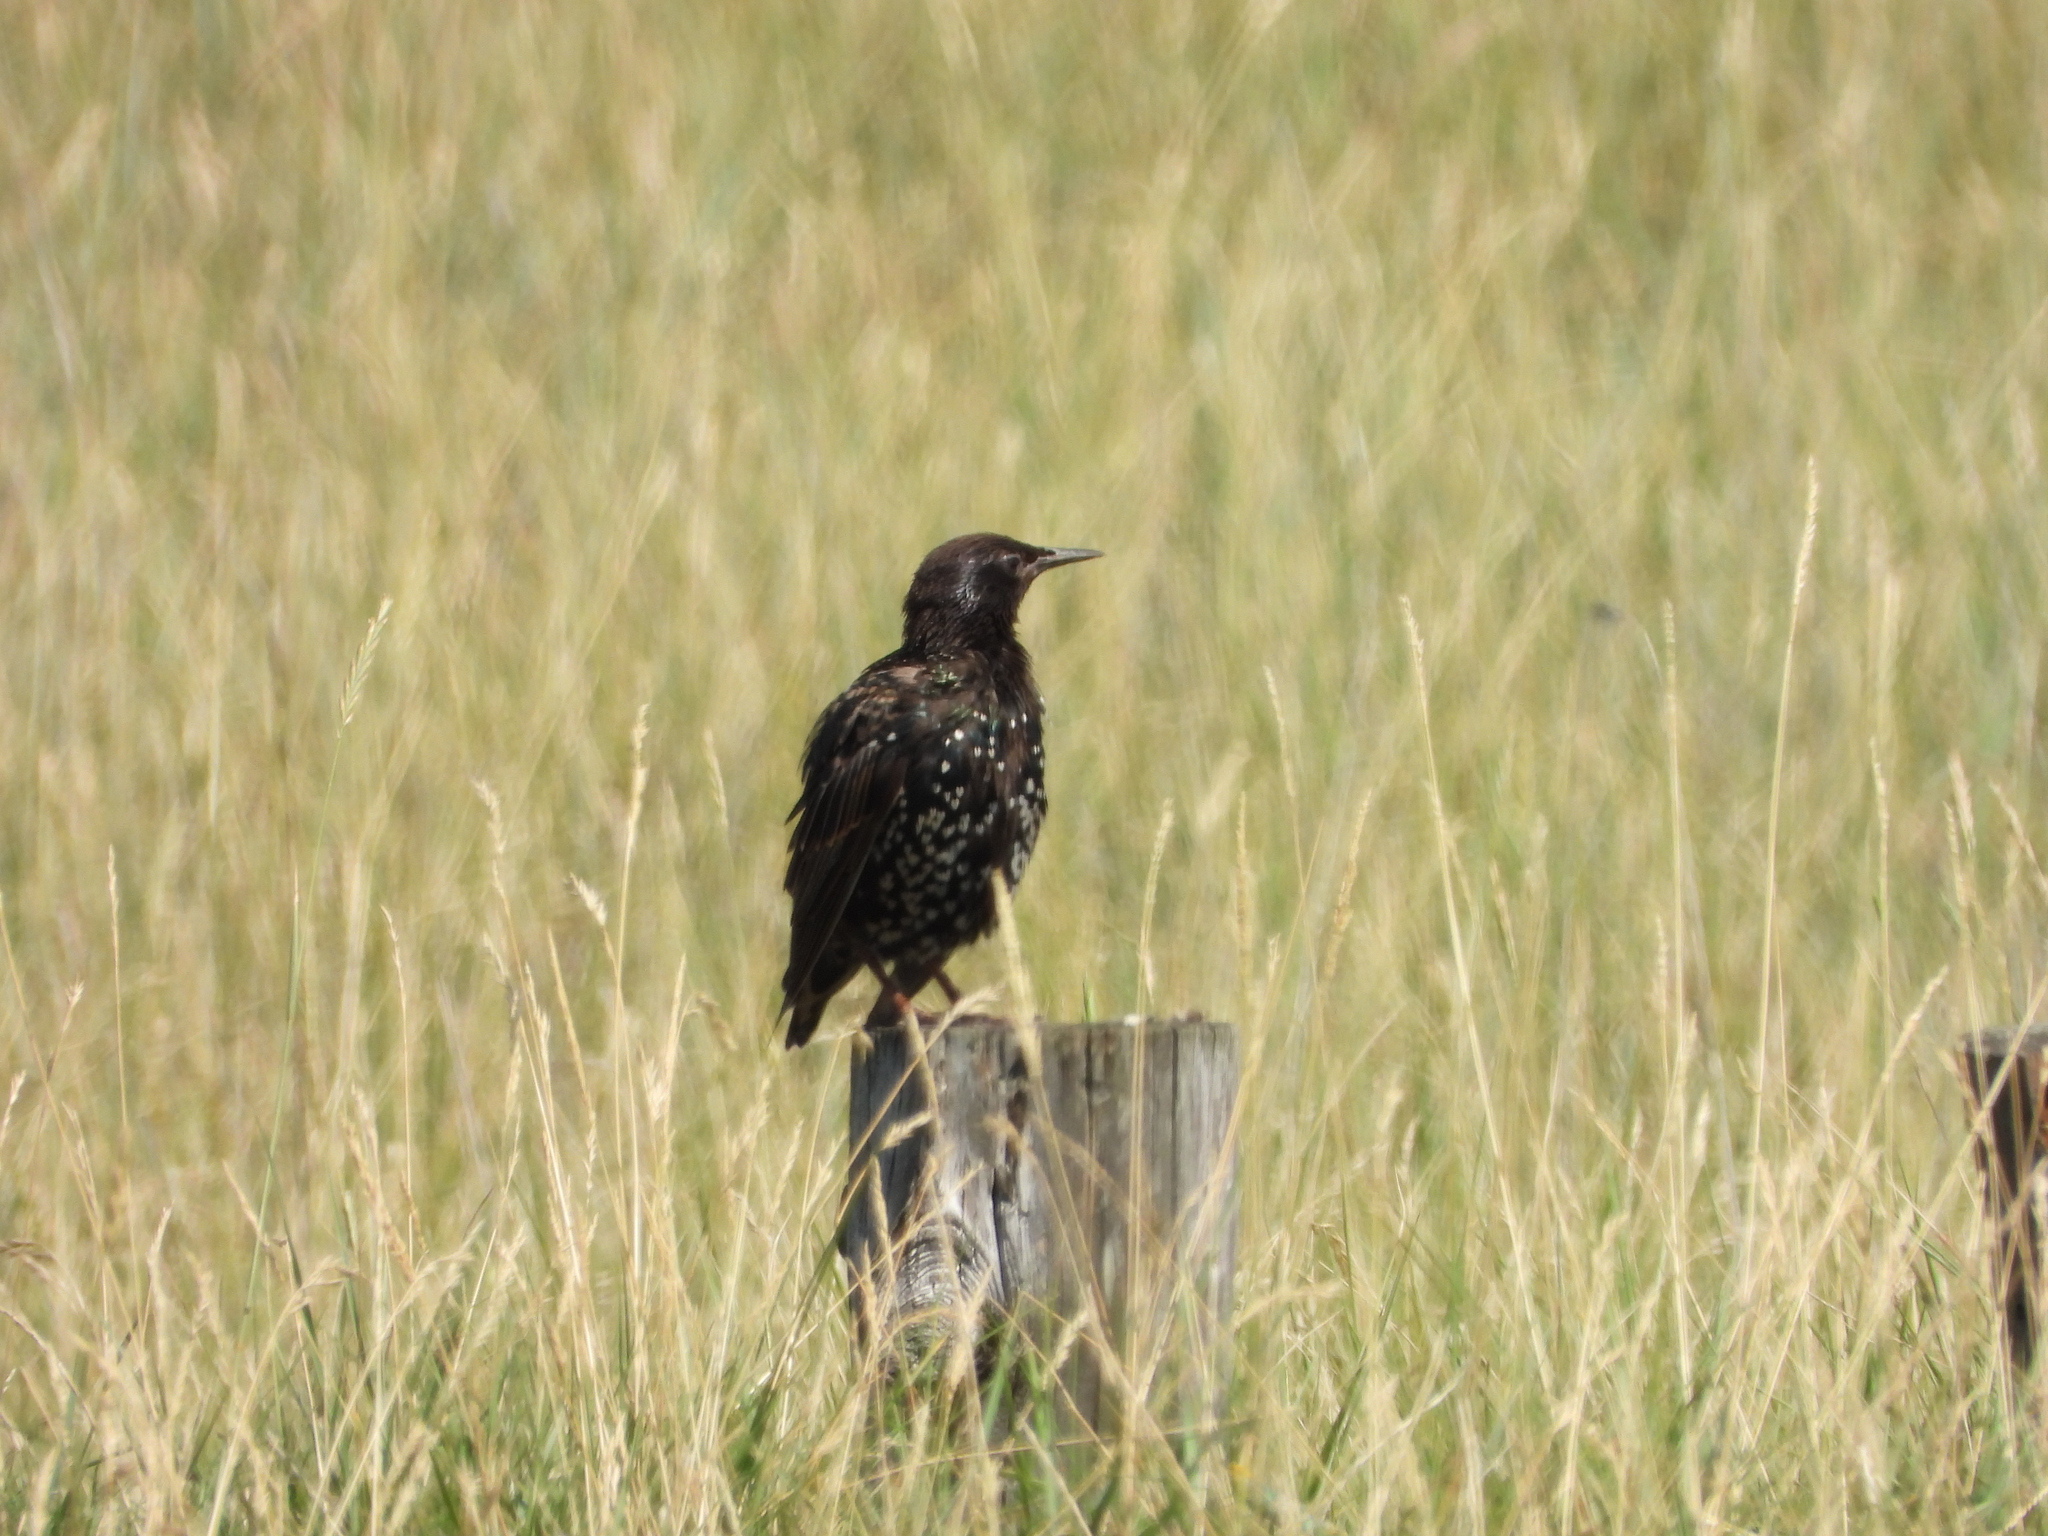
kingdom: Animalia
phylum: Chordata
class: Aves
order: Passeriformes
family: Sturnidae
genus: Sturnus
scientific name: Sturnus vulgaris
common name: Common starling
